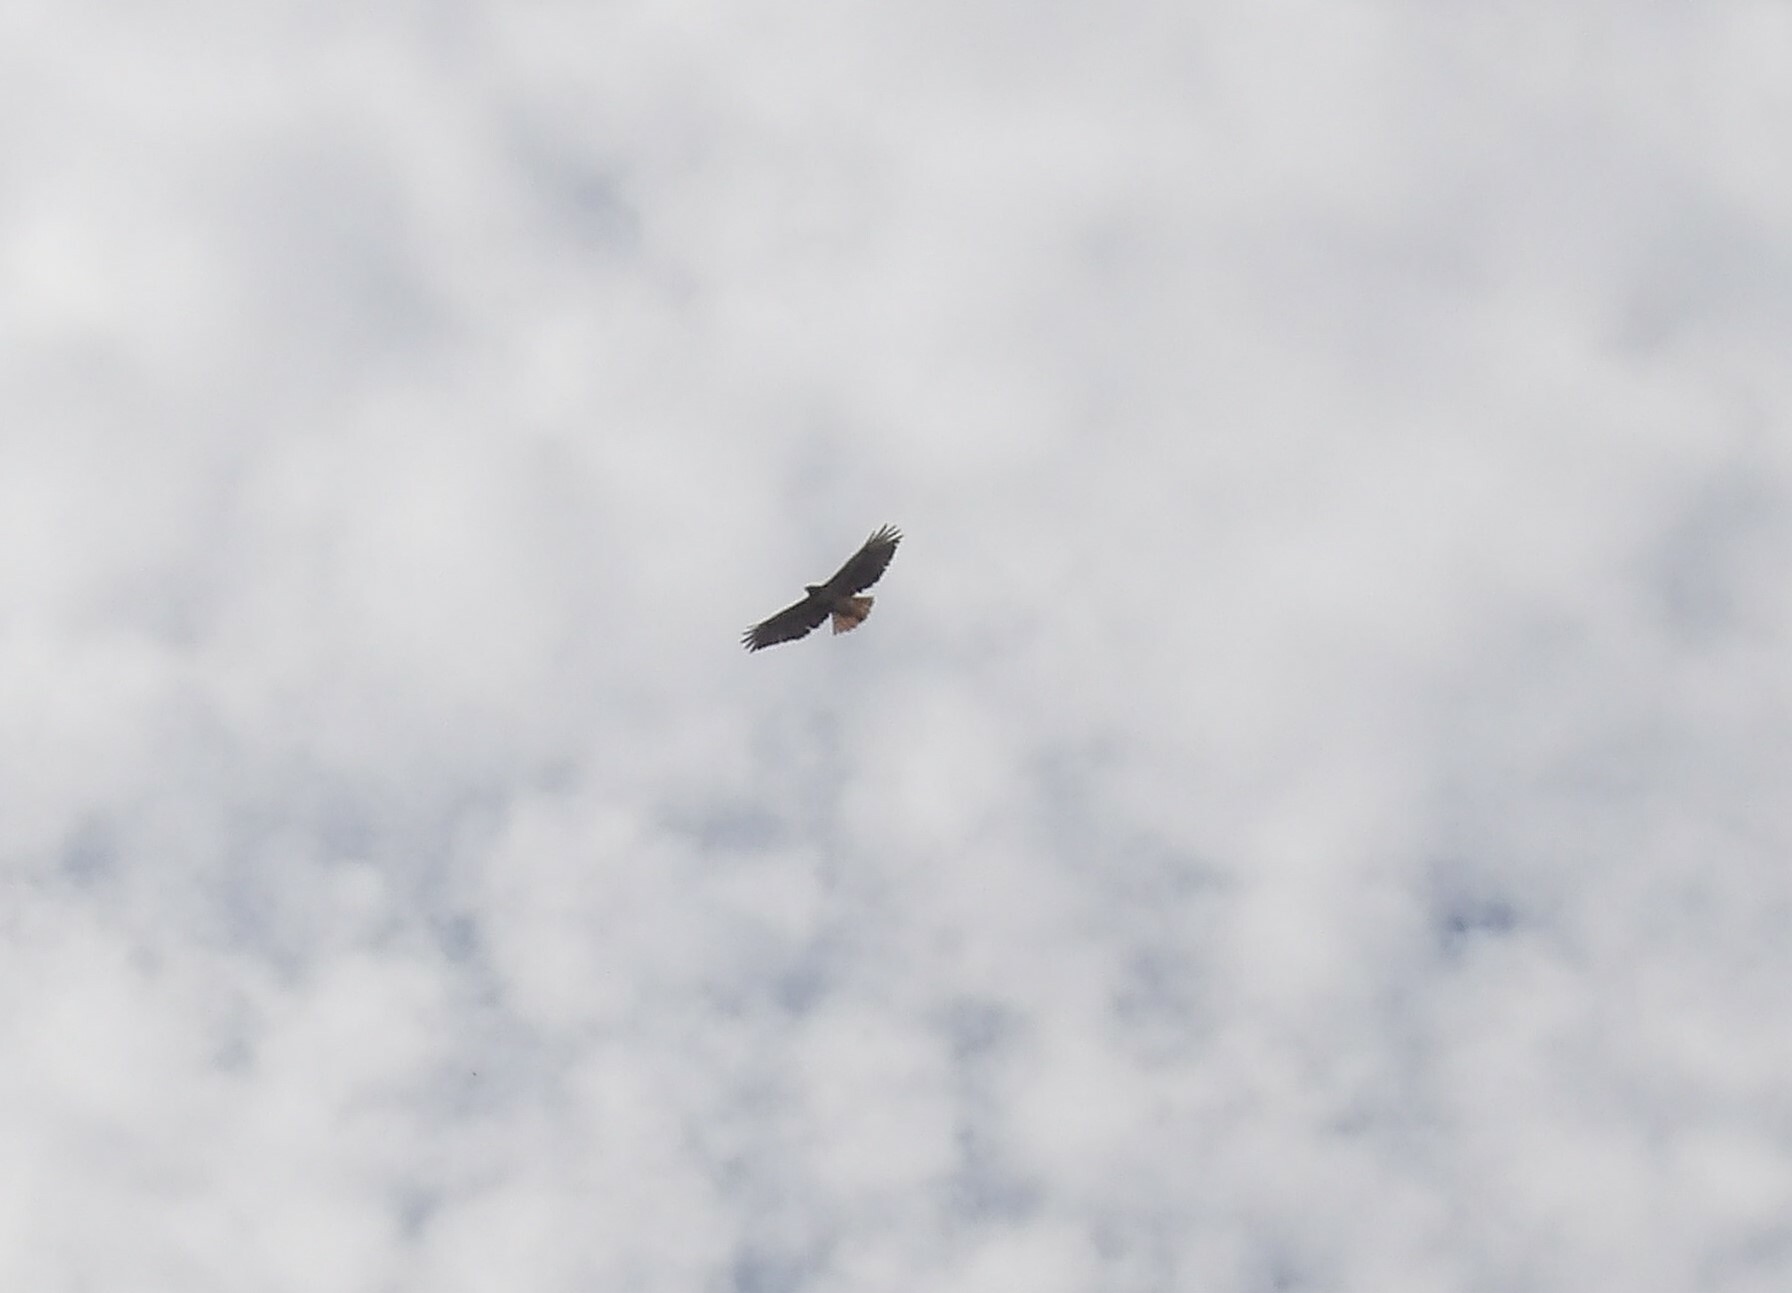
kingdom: Animalia
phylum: Chordata
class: Aves
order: Accipitriformes
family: Accipitridae
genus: Buteo
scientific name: Buteo jamaicensis
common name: Red-tailed hawk
